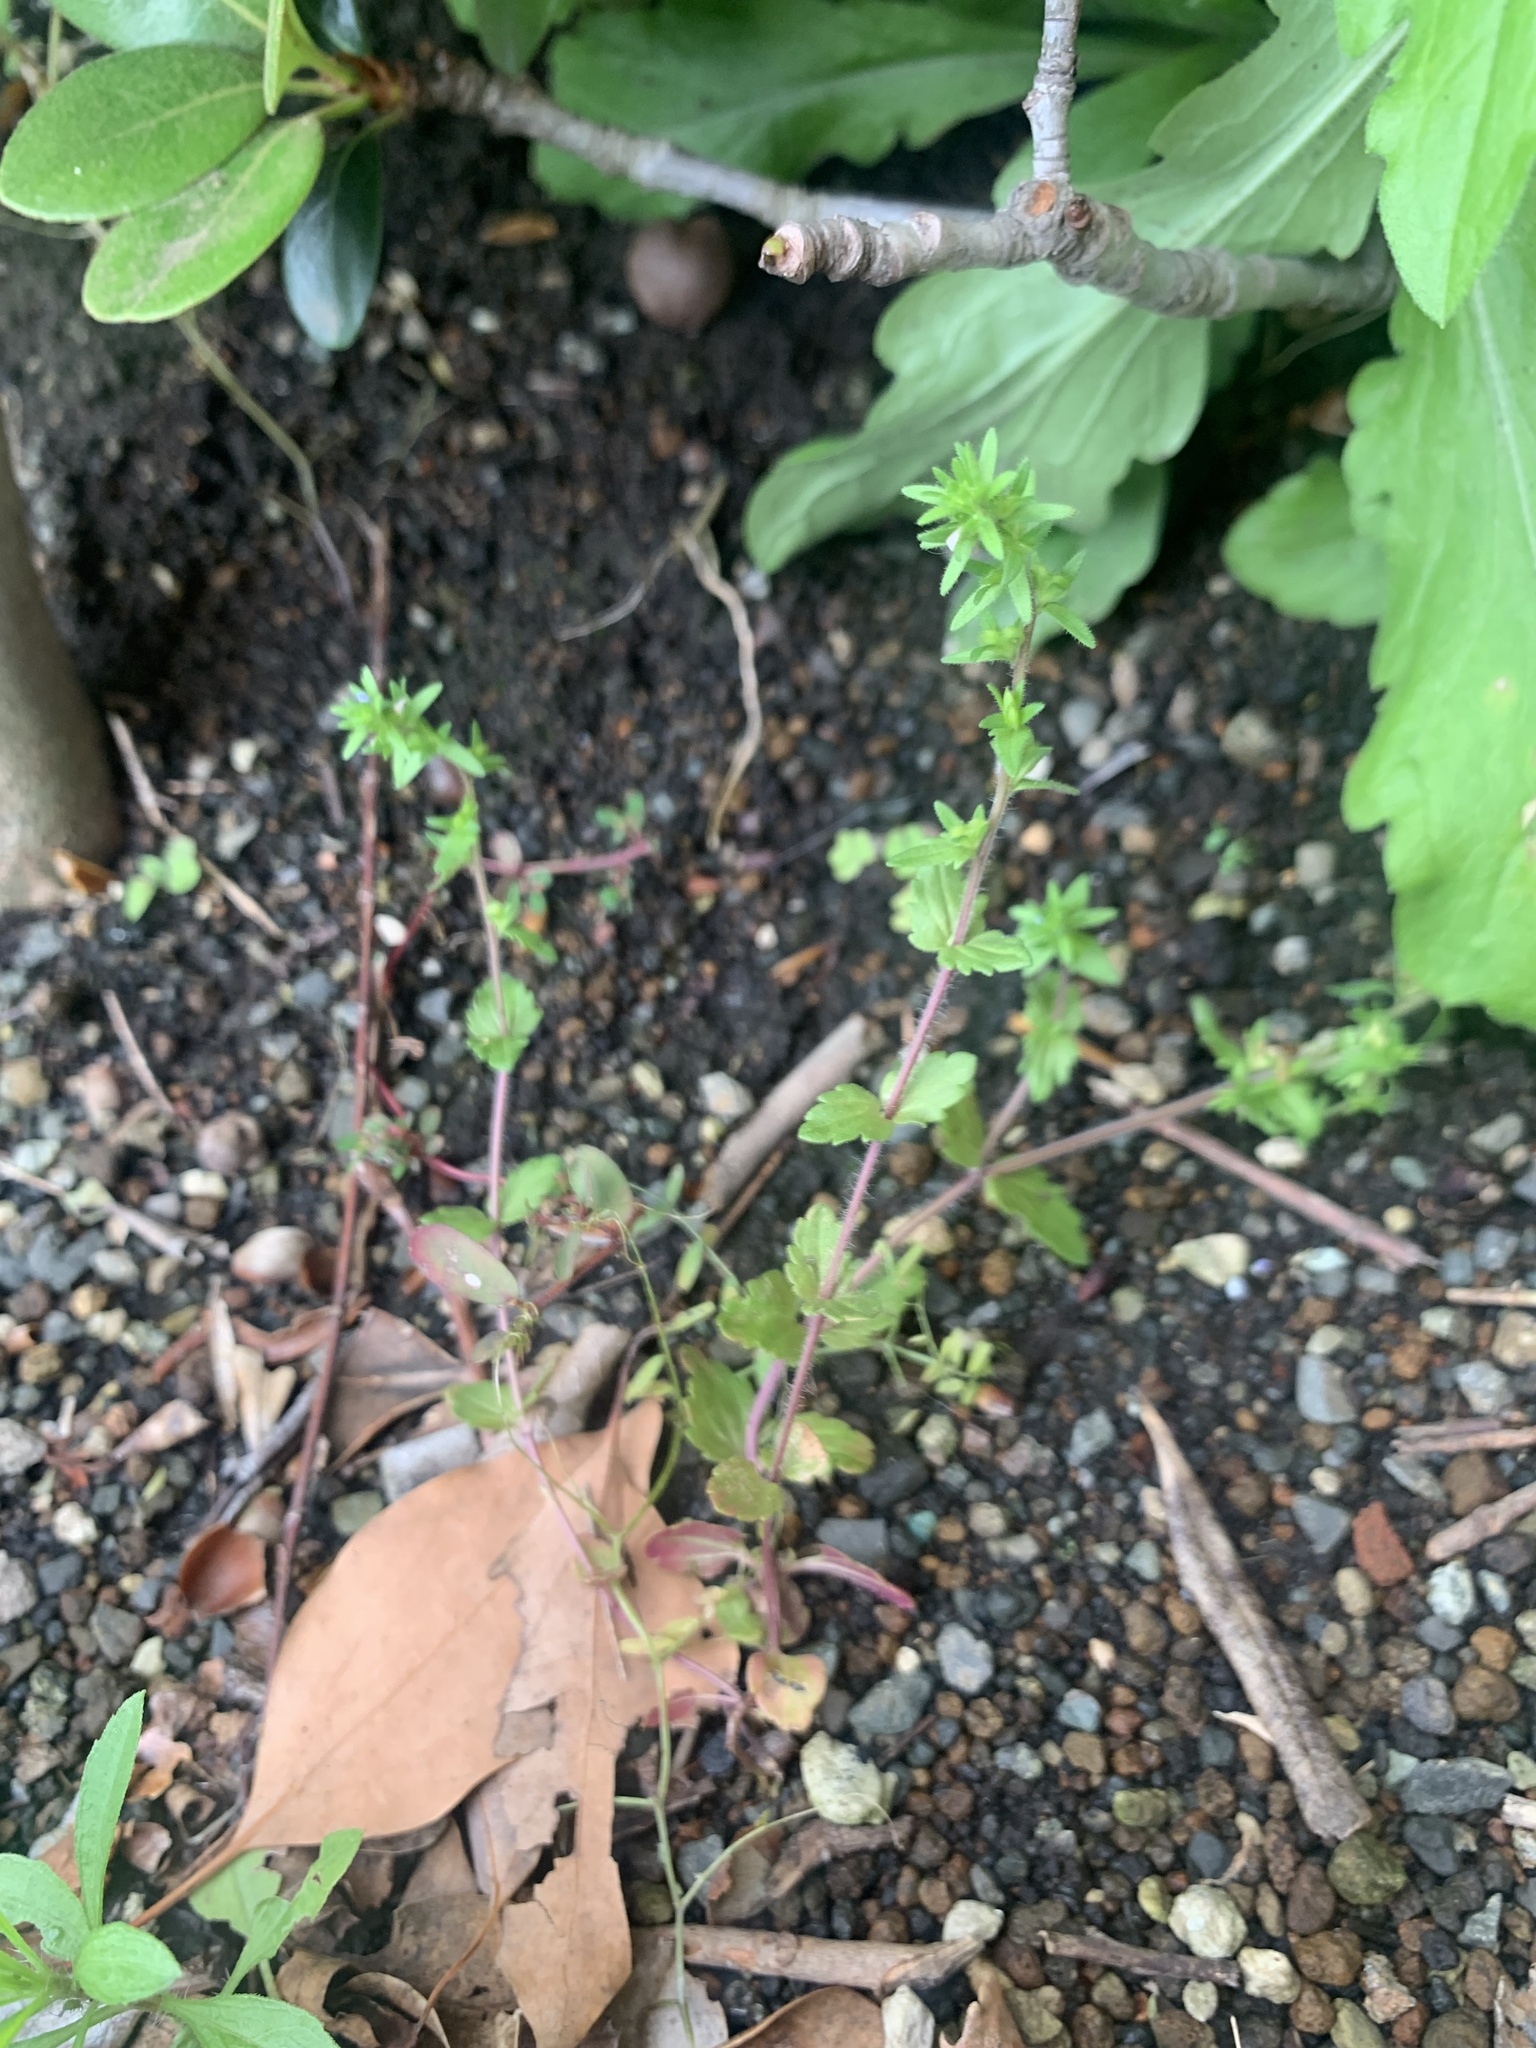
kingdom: Plantae
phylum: Tracheophyta
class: Magnoliopsida
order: Lamiales
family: Plantaginaceae
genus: Veronica
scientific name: Veronica arvensis
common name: Corn speedwell
